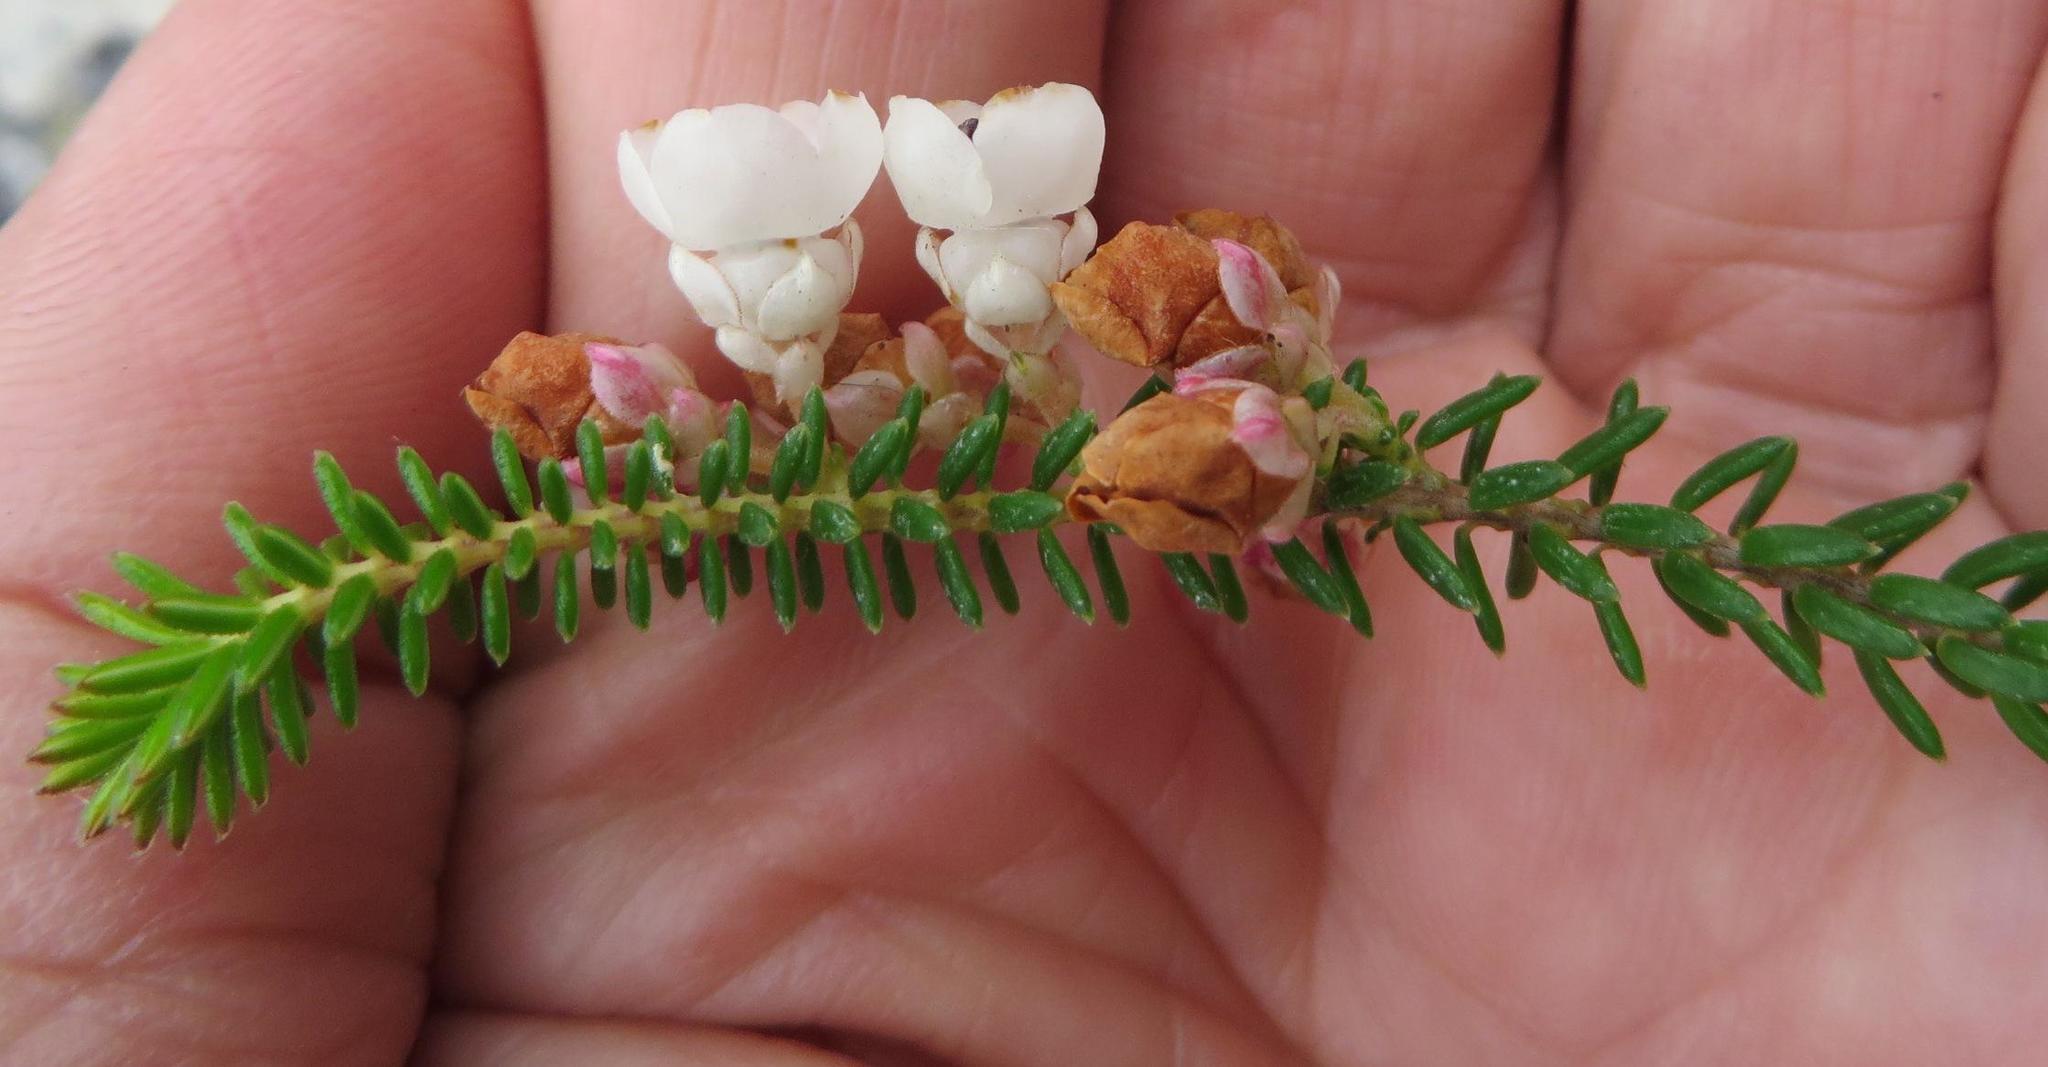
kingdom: Plantae
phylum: Tracheophyta
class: Magnoliopsida
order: Ericales
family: Ericaceae
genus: Erica
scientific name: Erica corydalis
